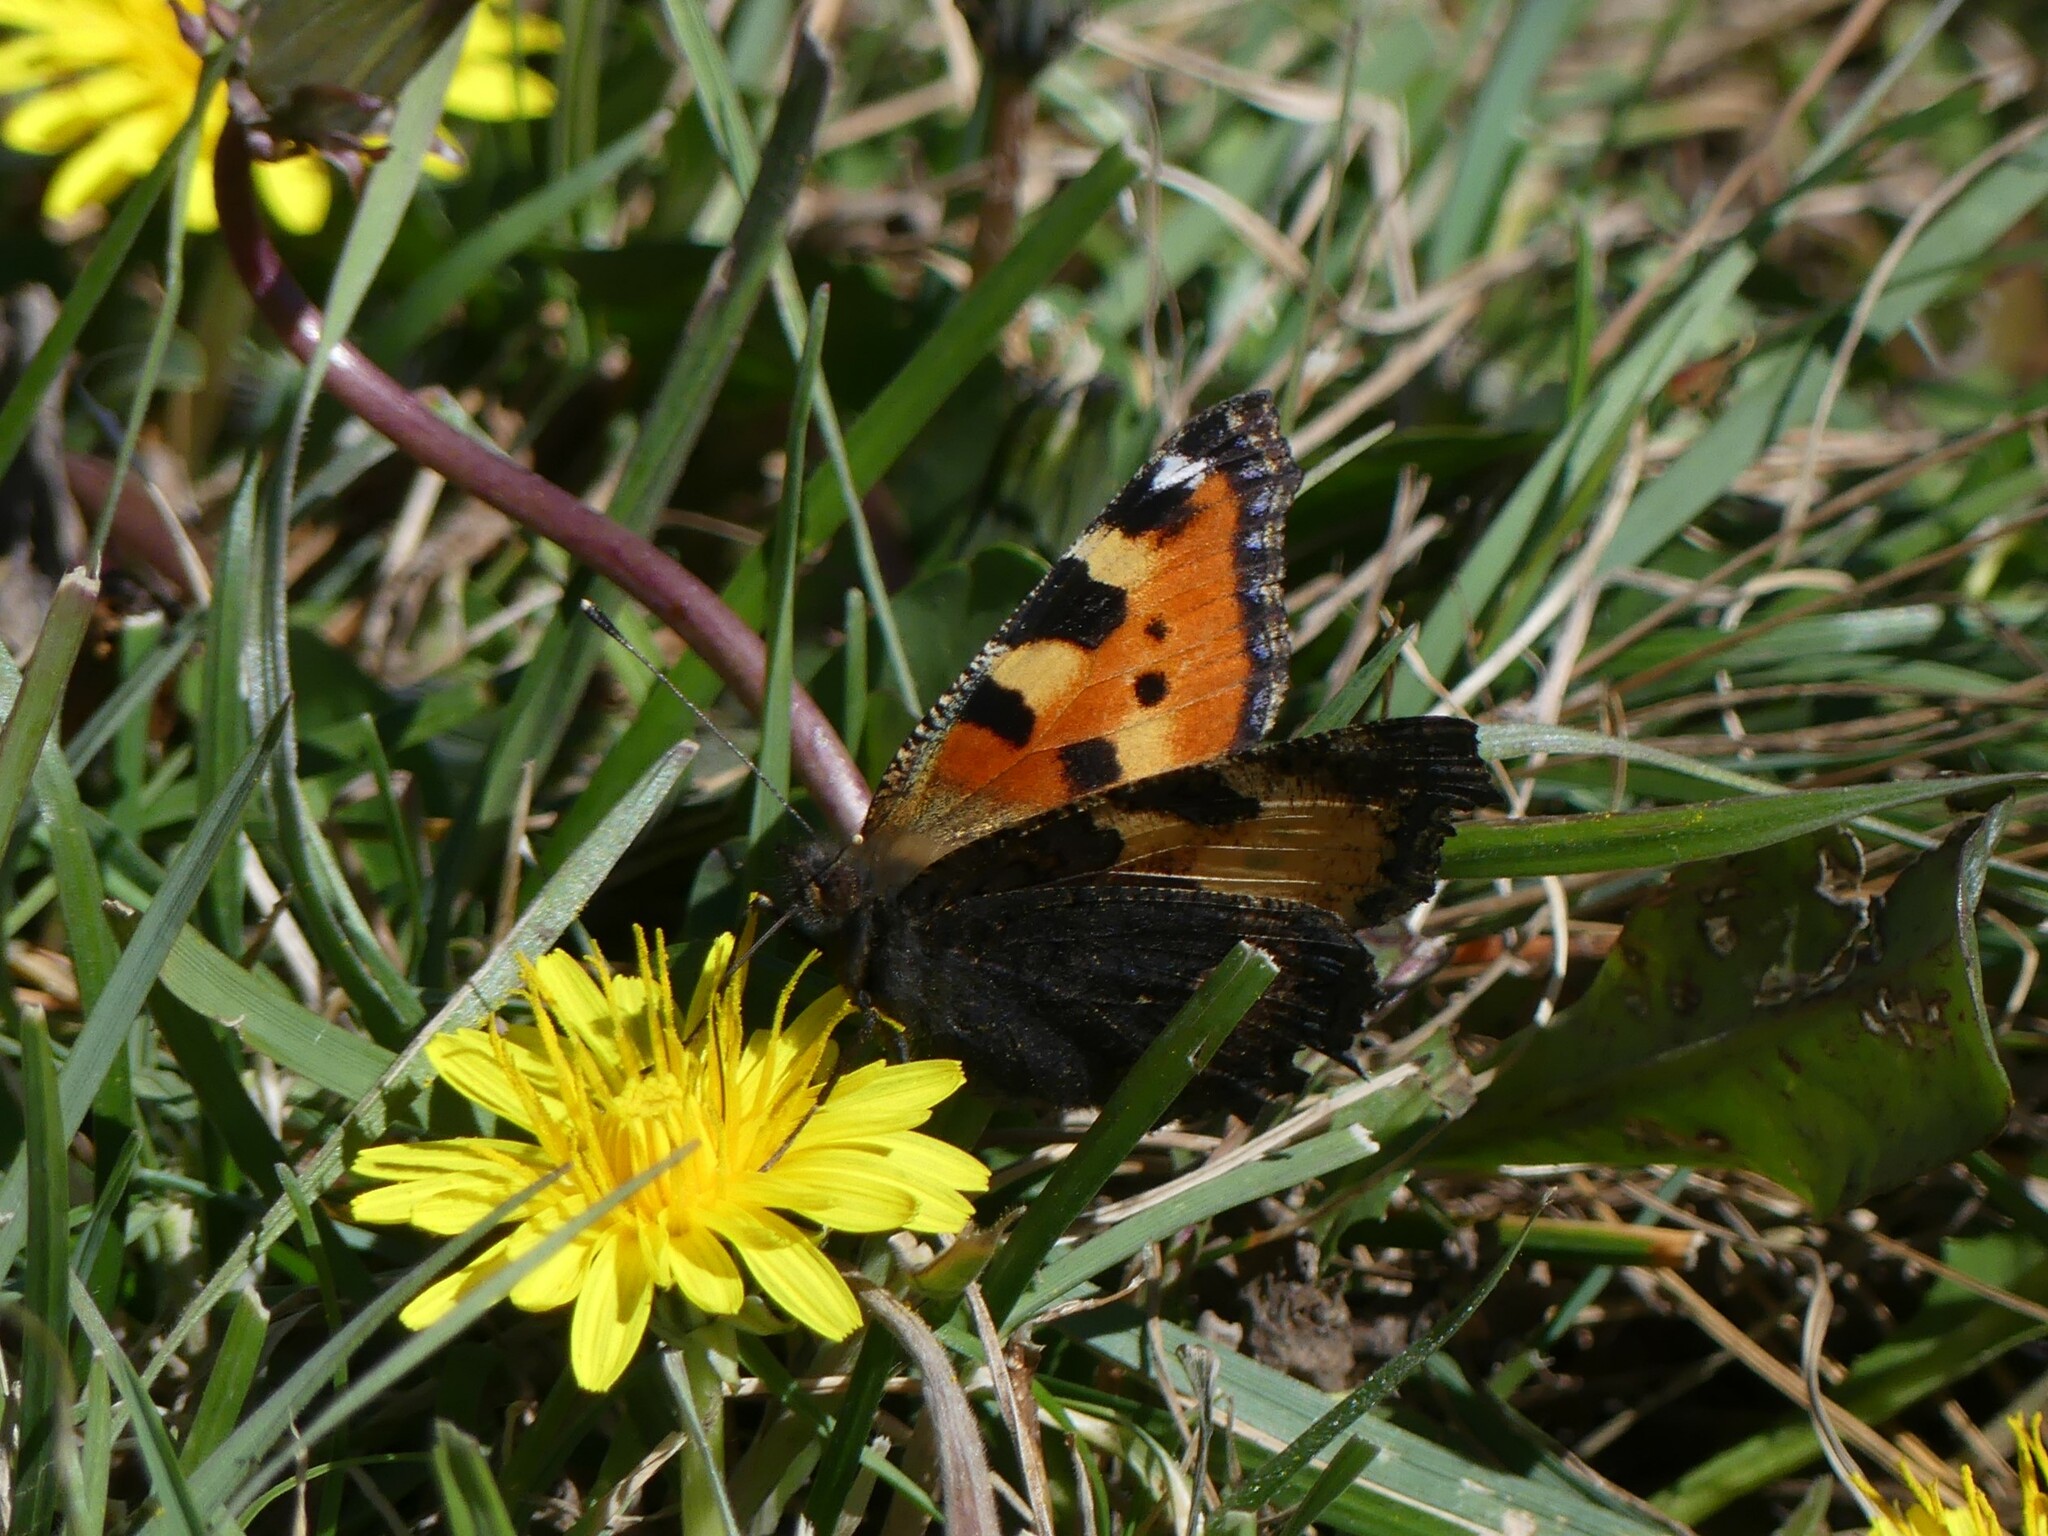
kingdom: Animalia
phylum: Arthropoda
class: Insecta
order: Lepidoptera
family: Nymphalidae
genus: Aglais
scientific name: Aglais urticae
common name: Small tortoiseshell
